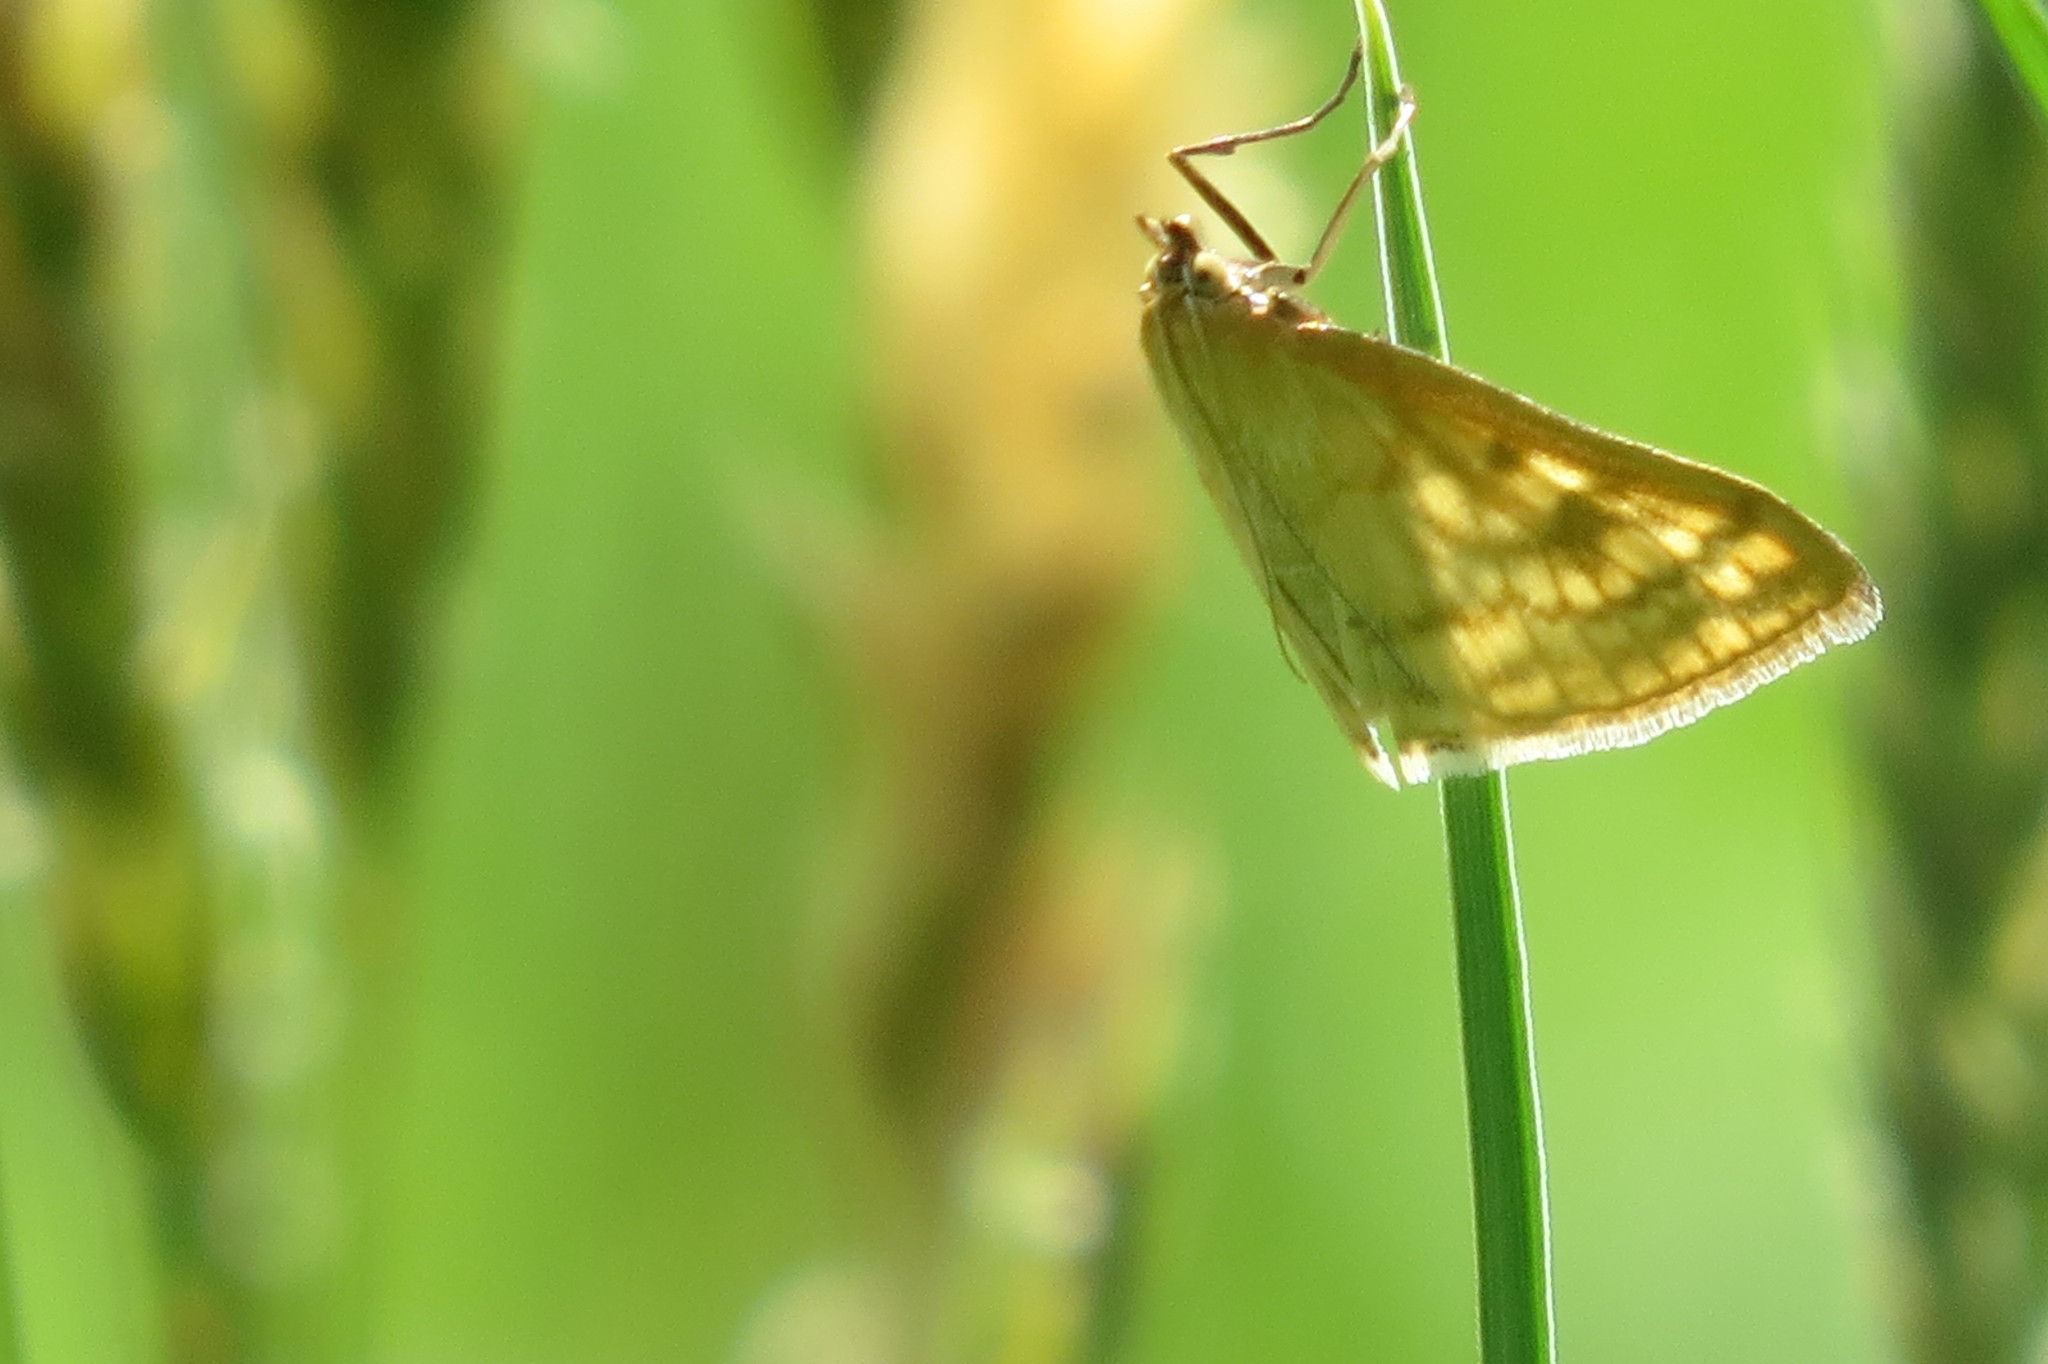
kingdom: Animalia
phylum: Arthropoda
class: Insecta
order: Lepidoptera
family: Crambidae
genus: Sitochroa
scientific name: Sitochroa verticalis
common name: Lesser pearl
